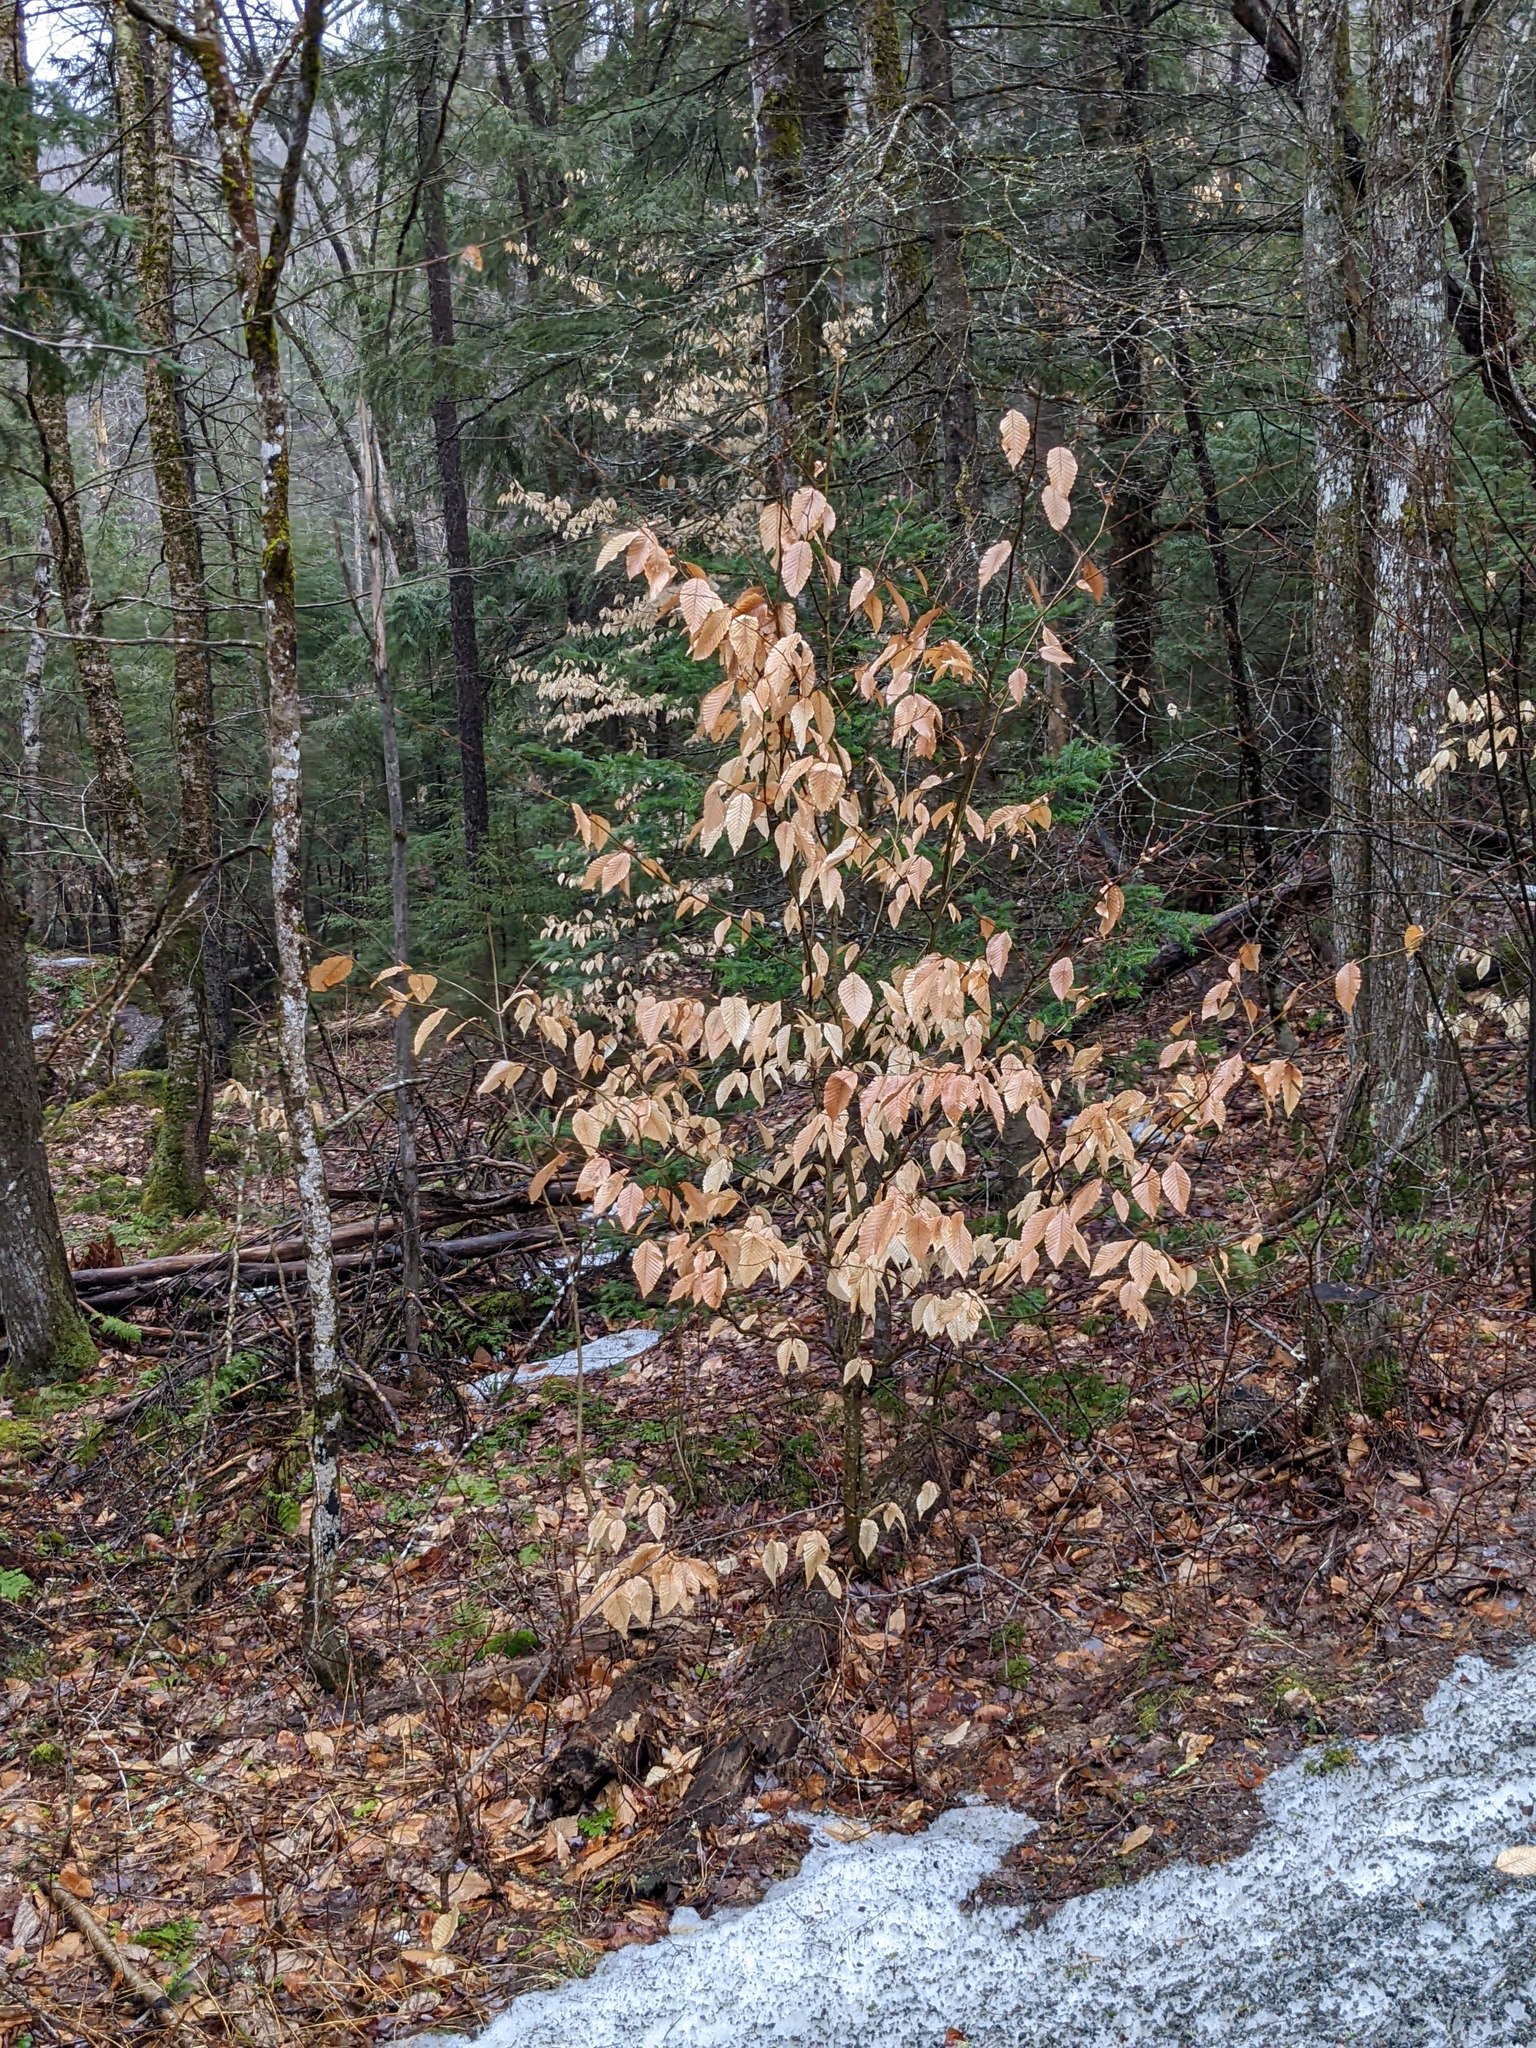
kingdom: Plantae
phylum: Tracheophyta
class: Magnoliopsida
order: Fagales
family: Fagaceae
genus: Fagus
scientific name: Fagus grandifolia
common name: American beech
